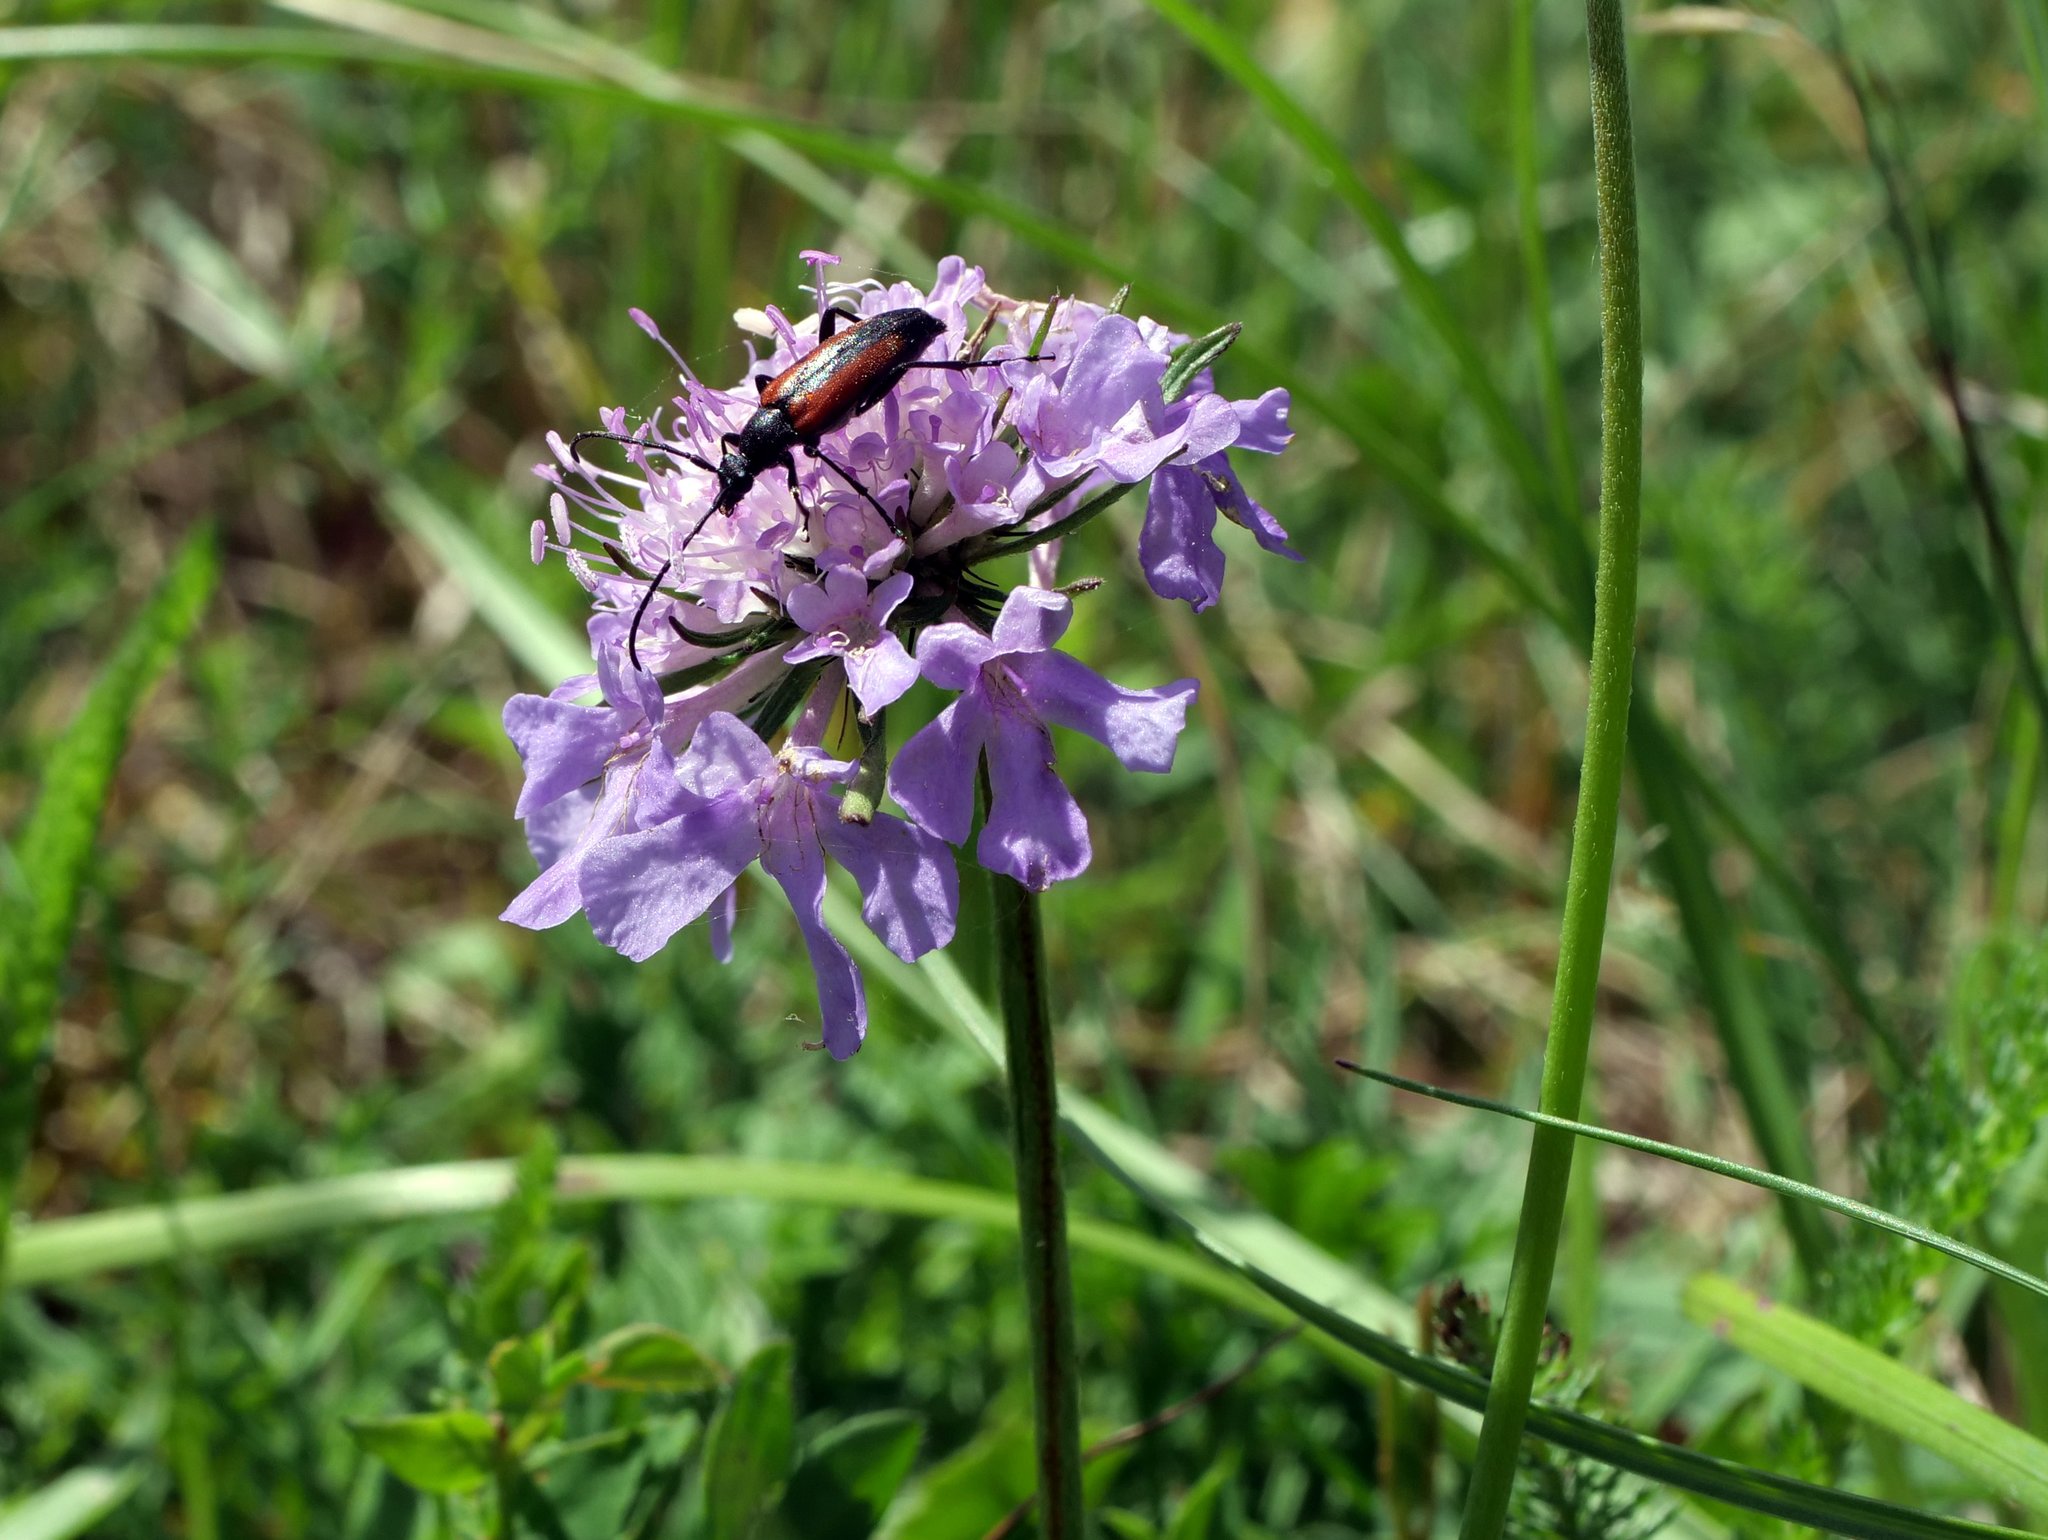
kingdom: Plantae
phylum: Tracheophyta
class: Magnoliopsida
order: Dipsacales
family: Caprifoliaceae
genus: Scabiosa
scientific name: Scabiosa columbaria
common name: Small scabious
